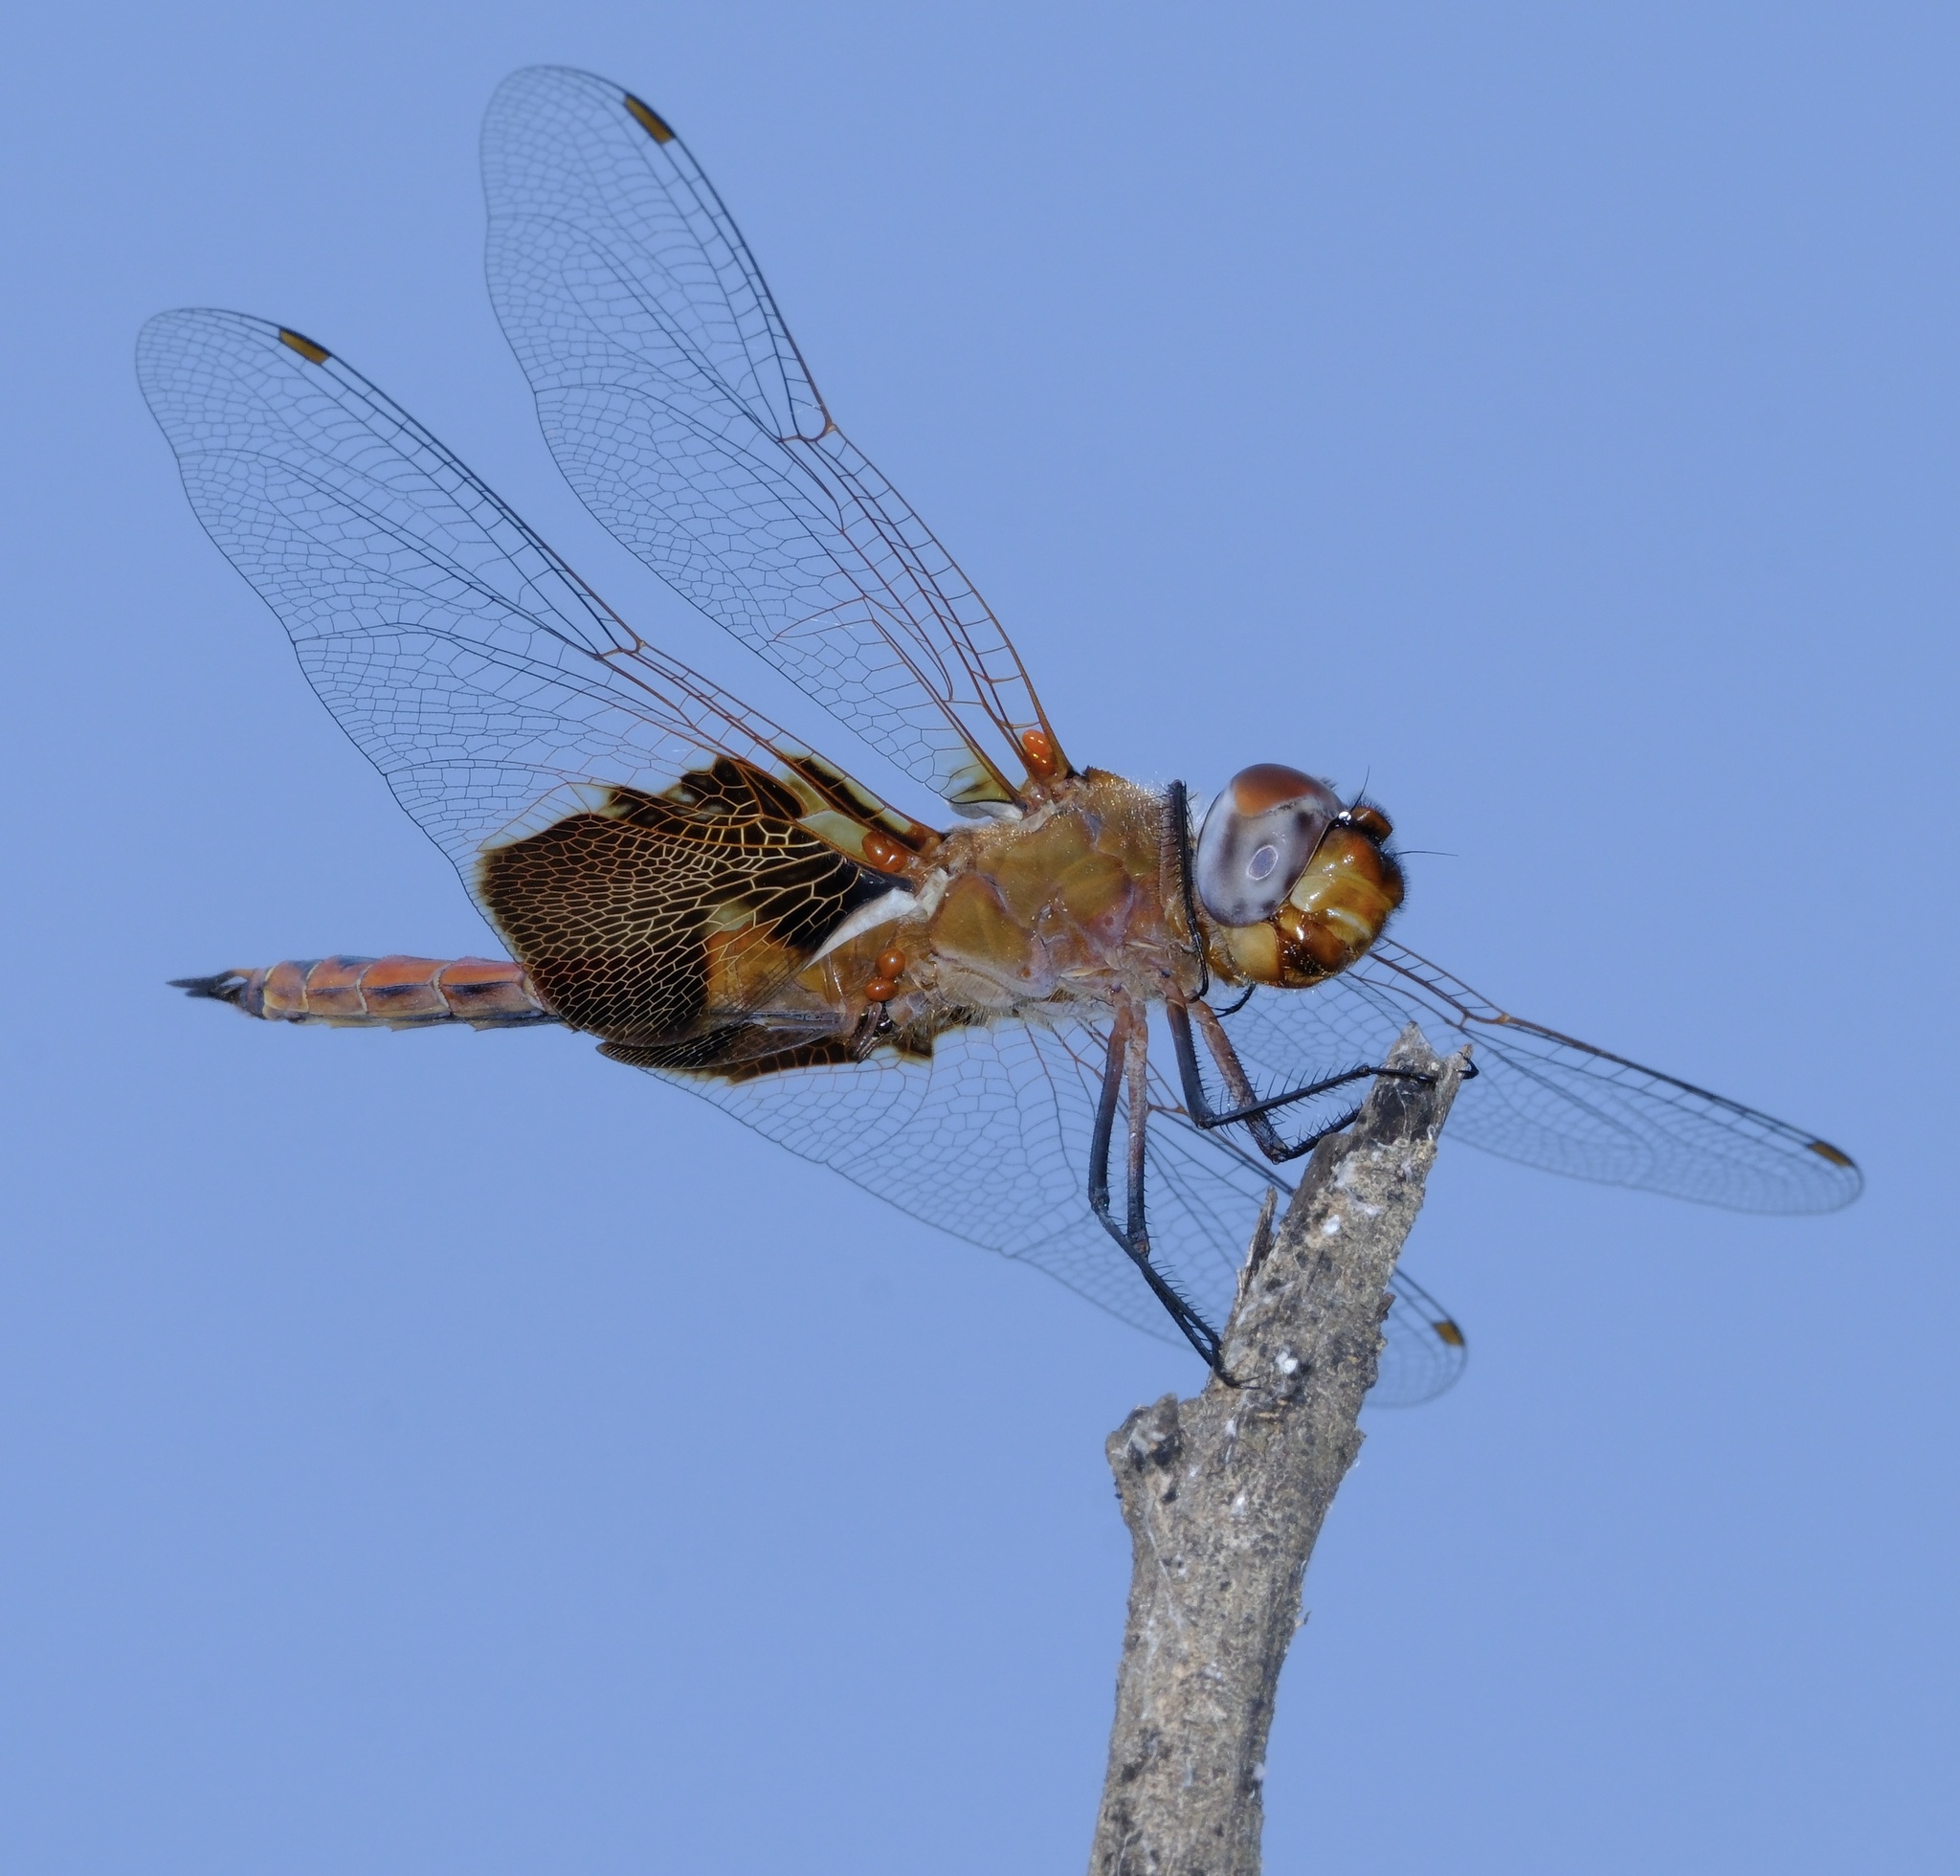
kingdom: Animalia
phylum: Arthropoda
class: Insecta
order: Odonata
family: Libellulidae
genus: Tramea
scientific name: Tramea onusta
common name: Red saddlebags
